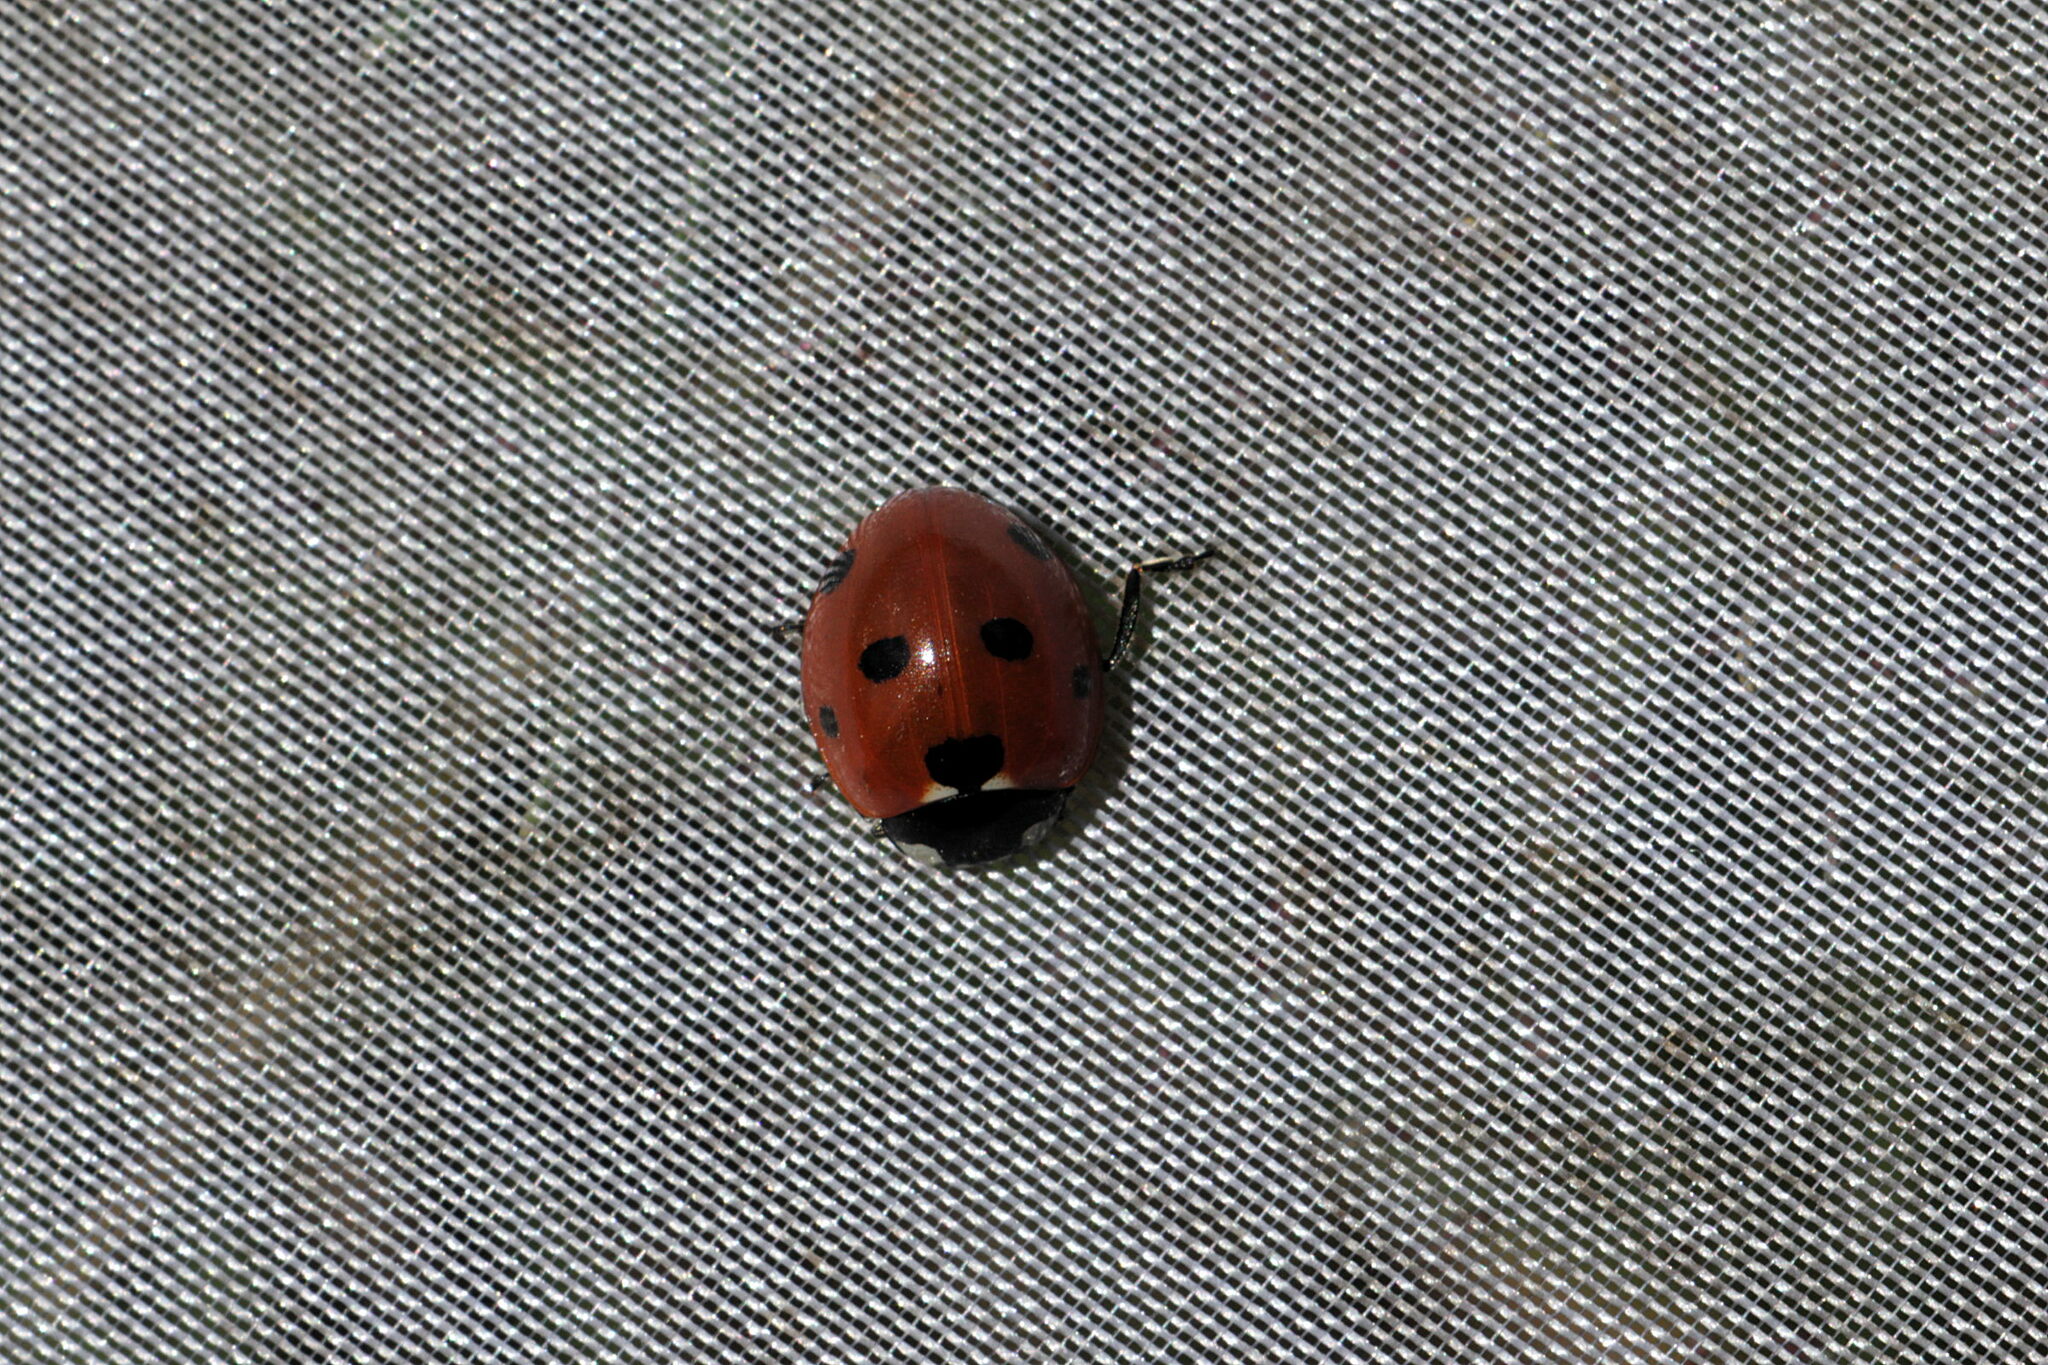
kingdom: Animalia
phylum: Arthropoda
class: Insecta
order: Coleoptera
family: Coccinellidae
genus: Coccinella
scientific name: Coccinella septempunctata
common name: Sevenspotted lady beetle
